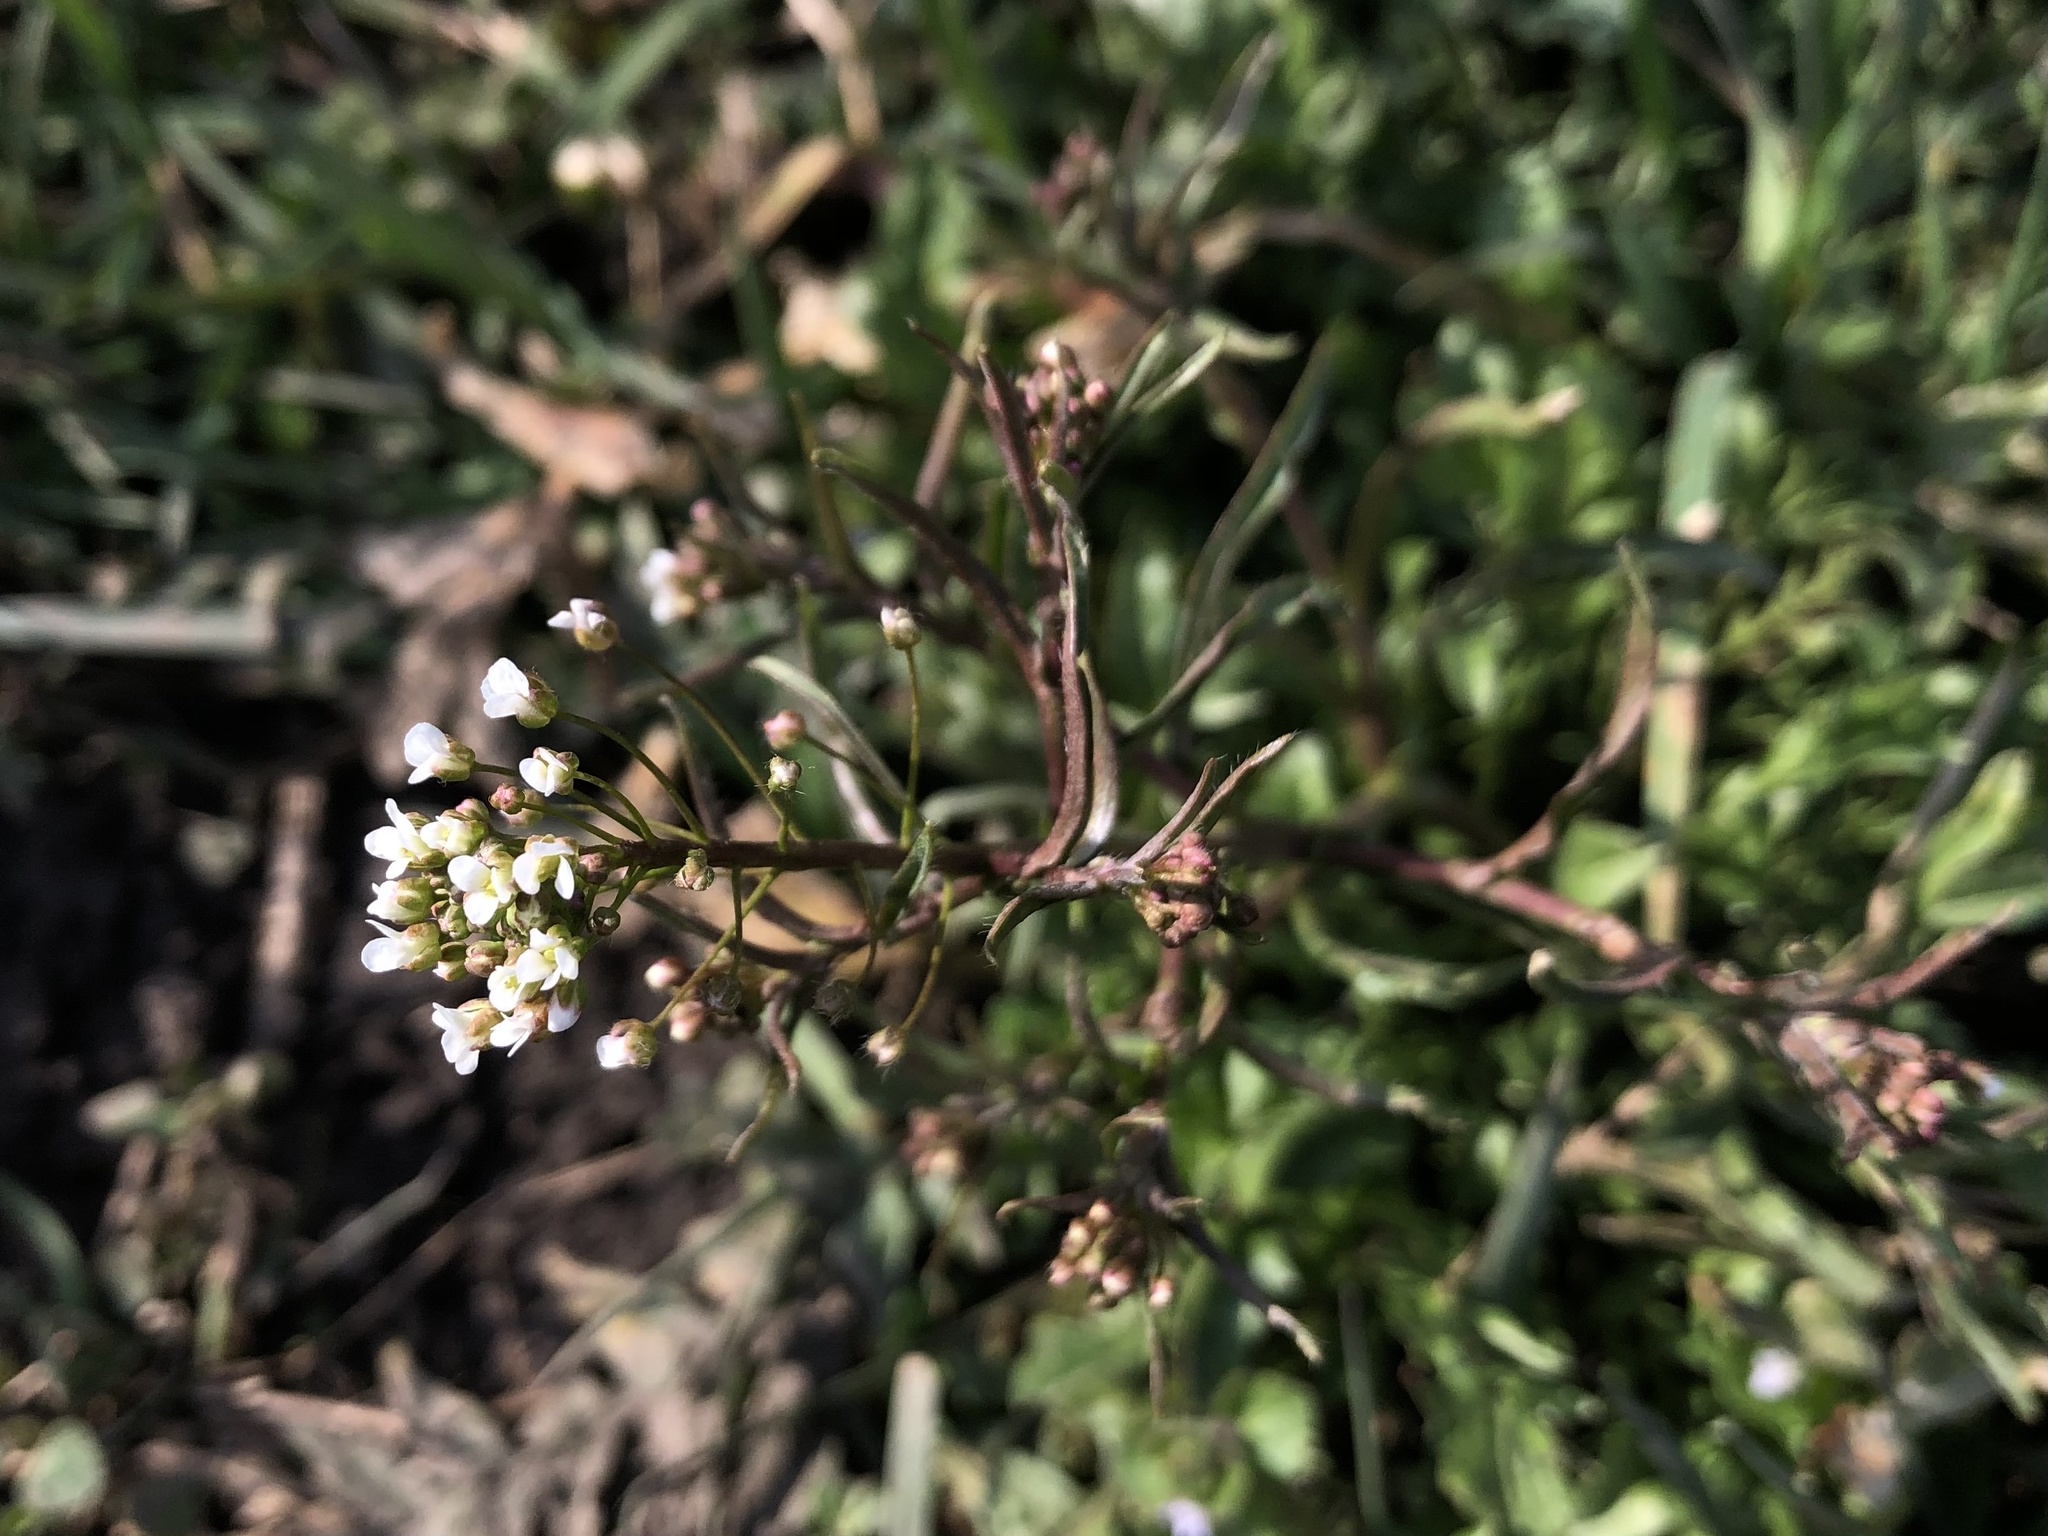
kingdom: Plantae
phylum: Tracheophyta
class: Magnoliopsida
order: Brassicales
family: Brassicaceae
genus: Capsella
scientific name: Capsella bursa-pastoris
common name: Shepherd's purse
